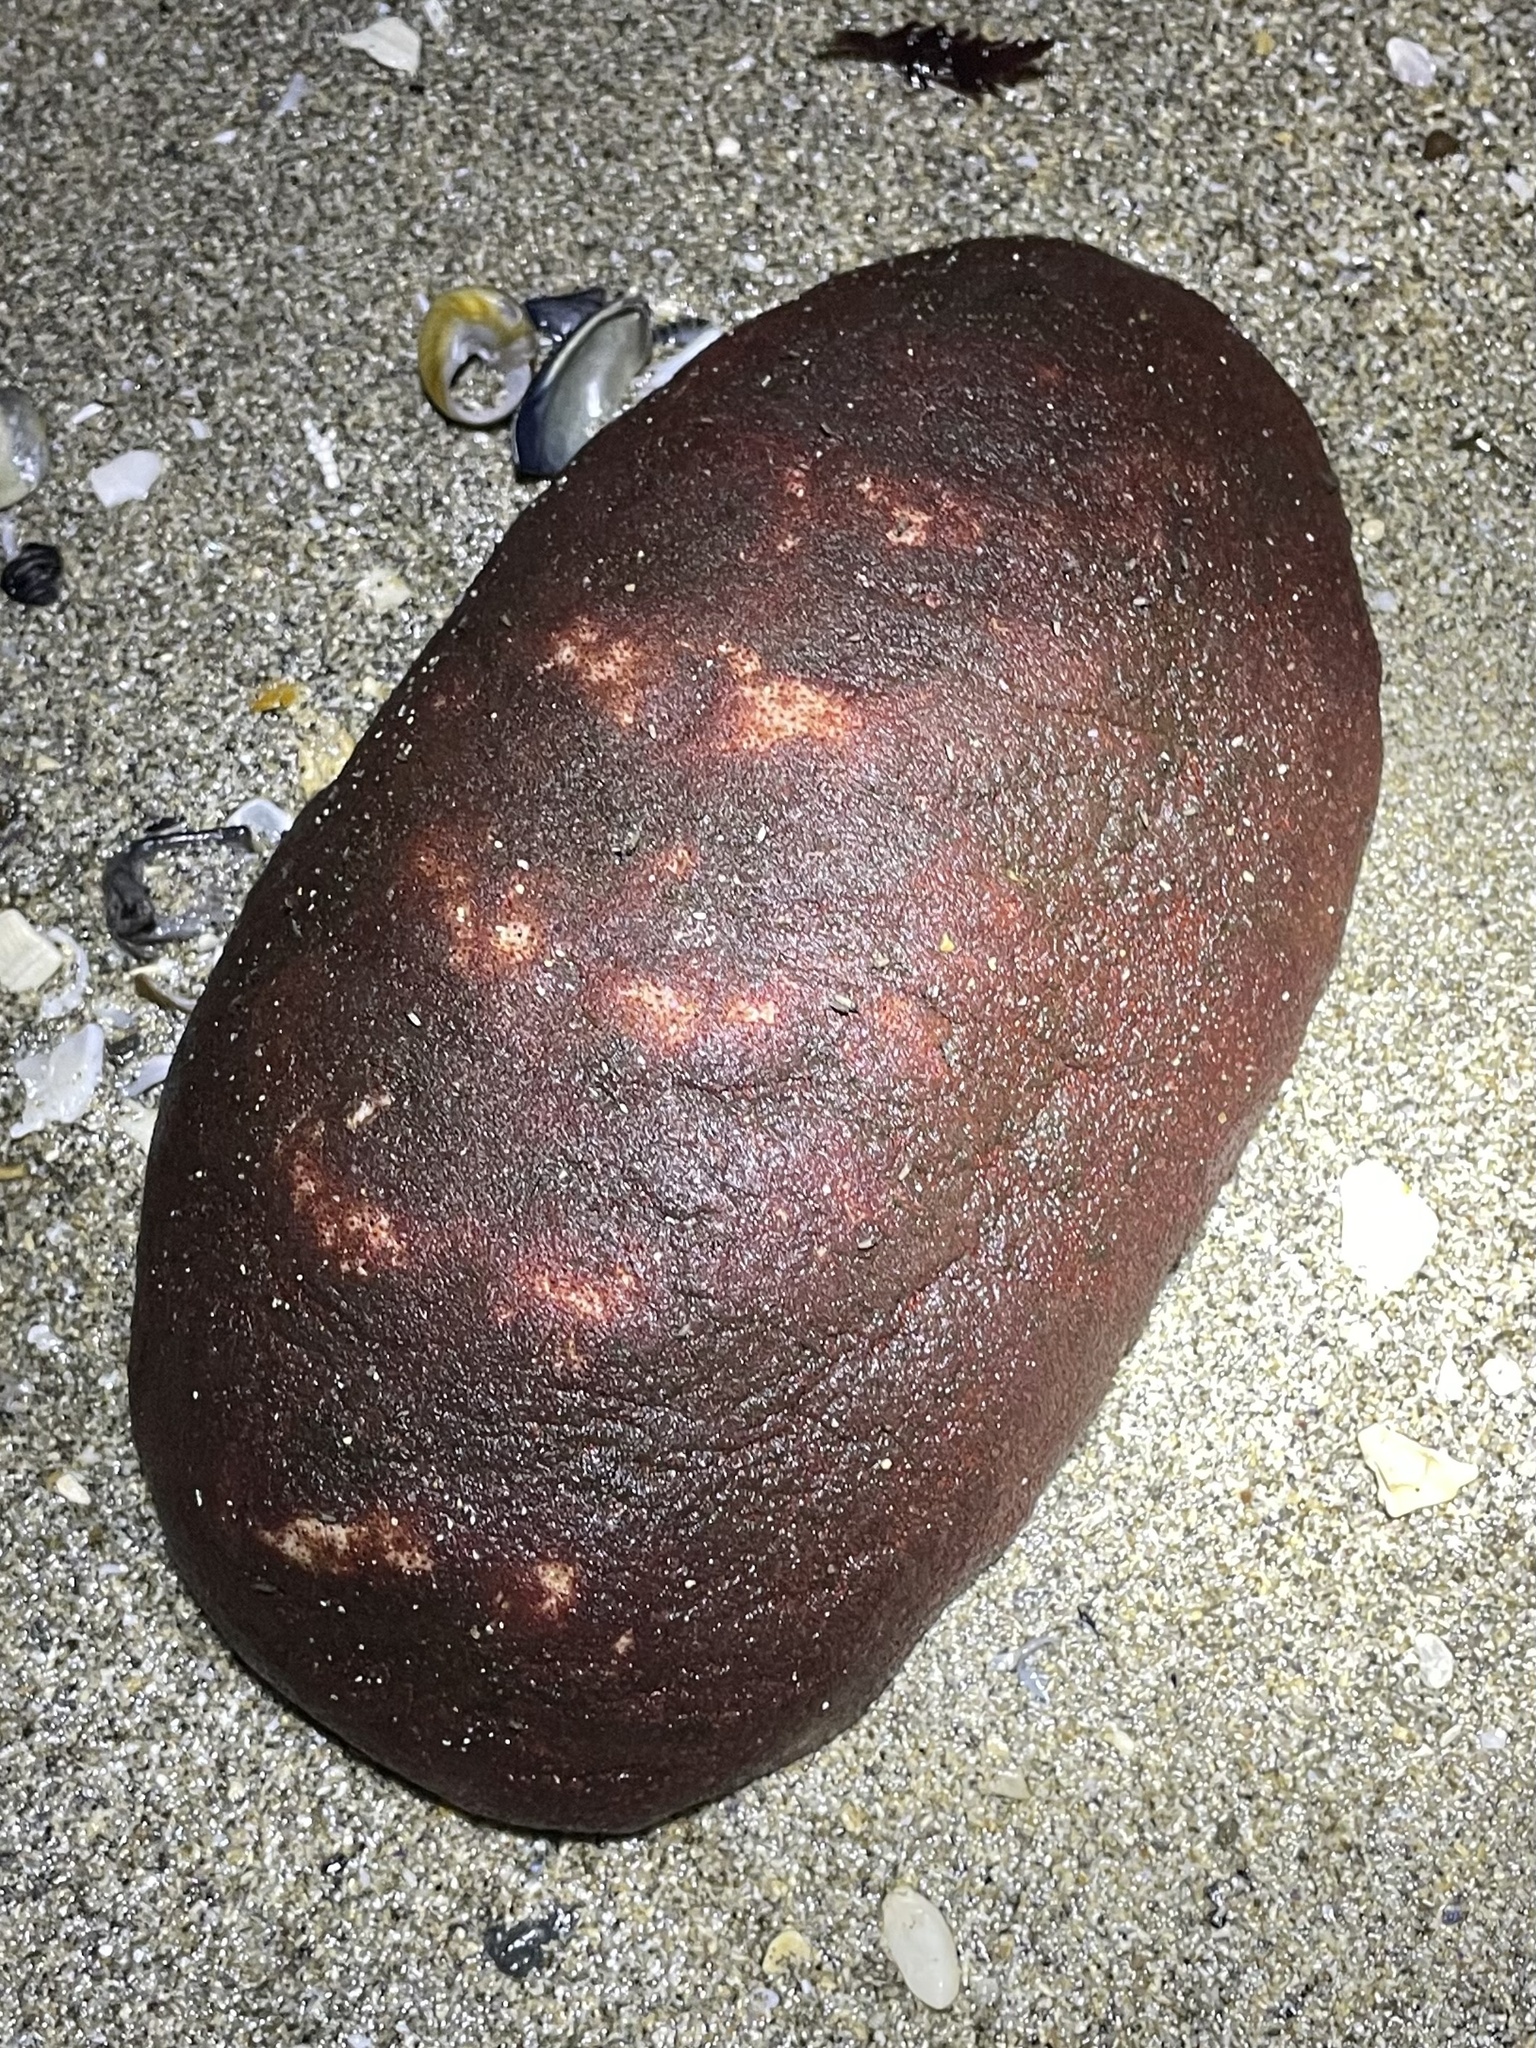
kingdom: Animalia
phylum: Mollusca
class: Polyplacophora
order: Chitonida
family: Acanthochitonidae
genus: Cryptochiton
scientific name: Cryptochiton stelleri
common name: Giant pacific chiton
